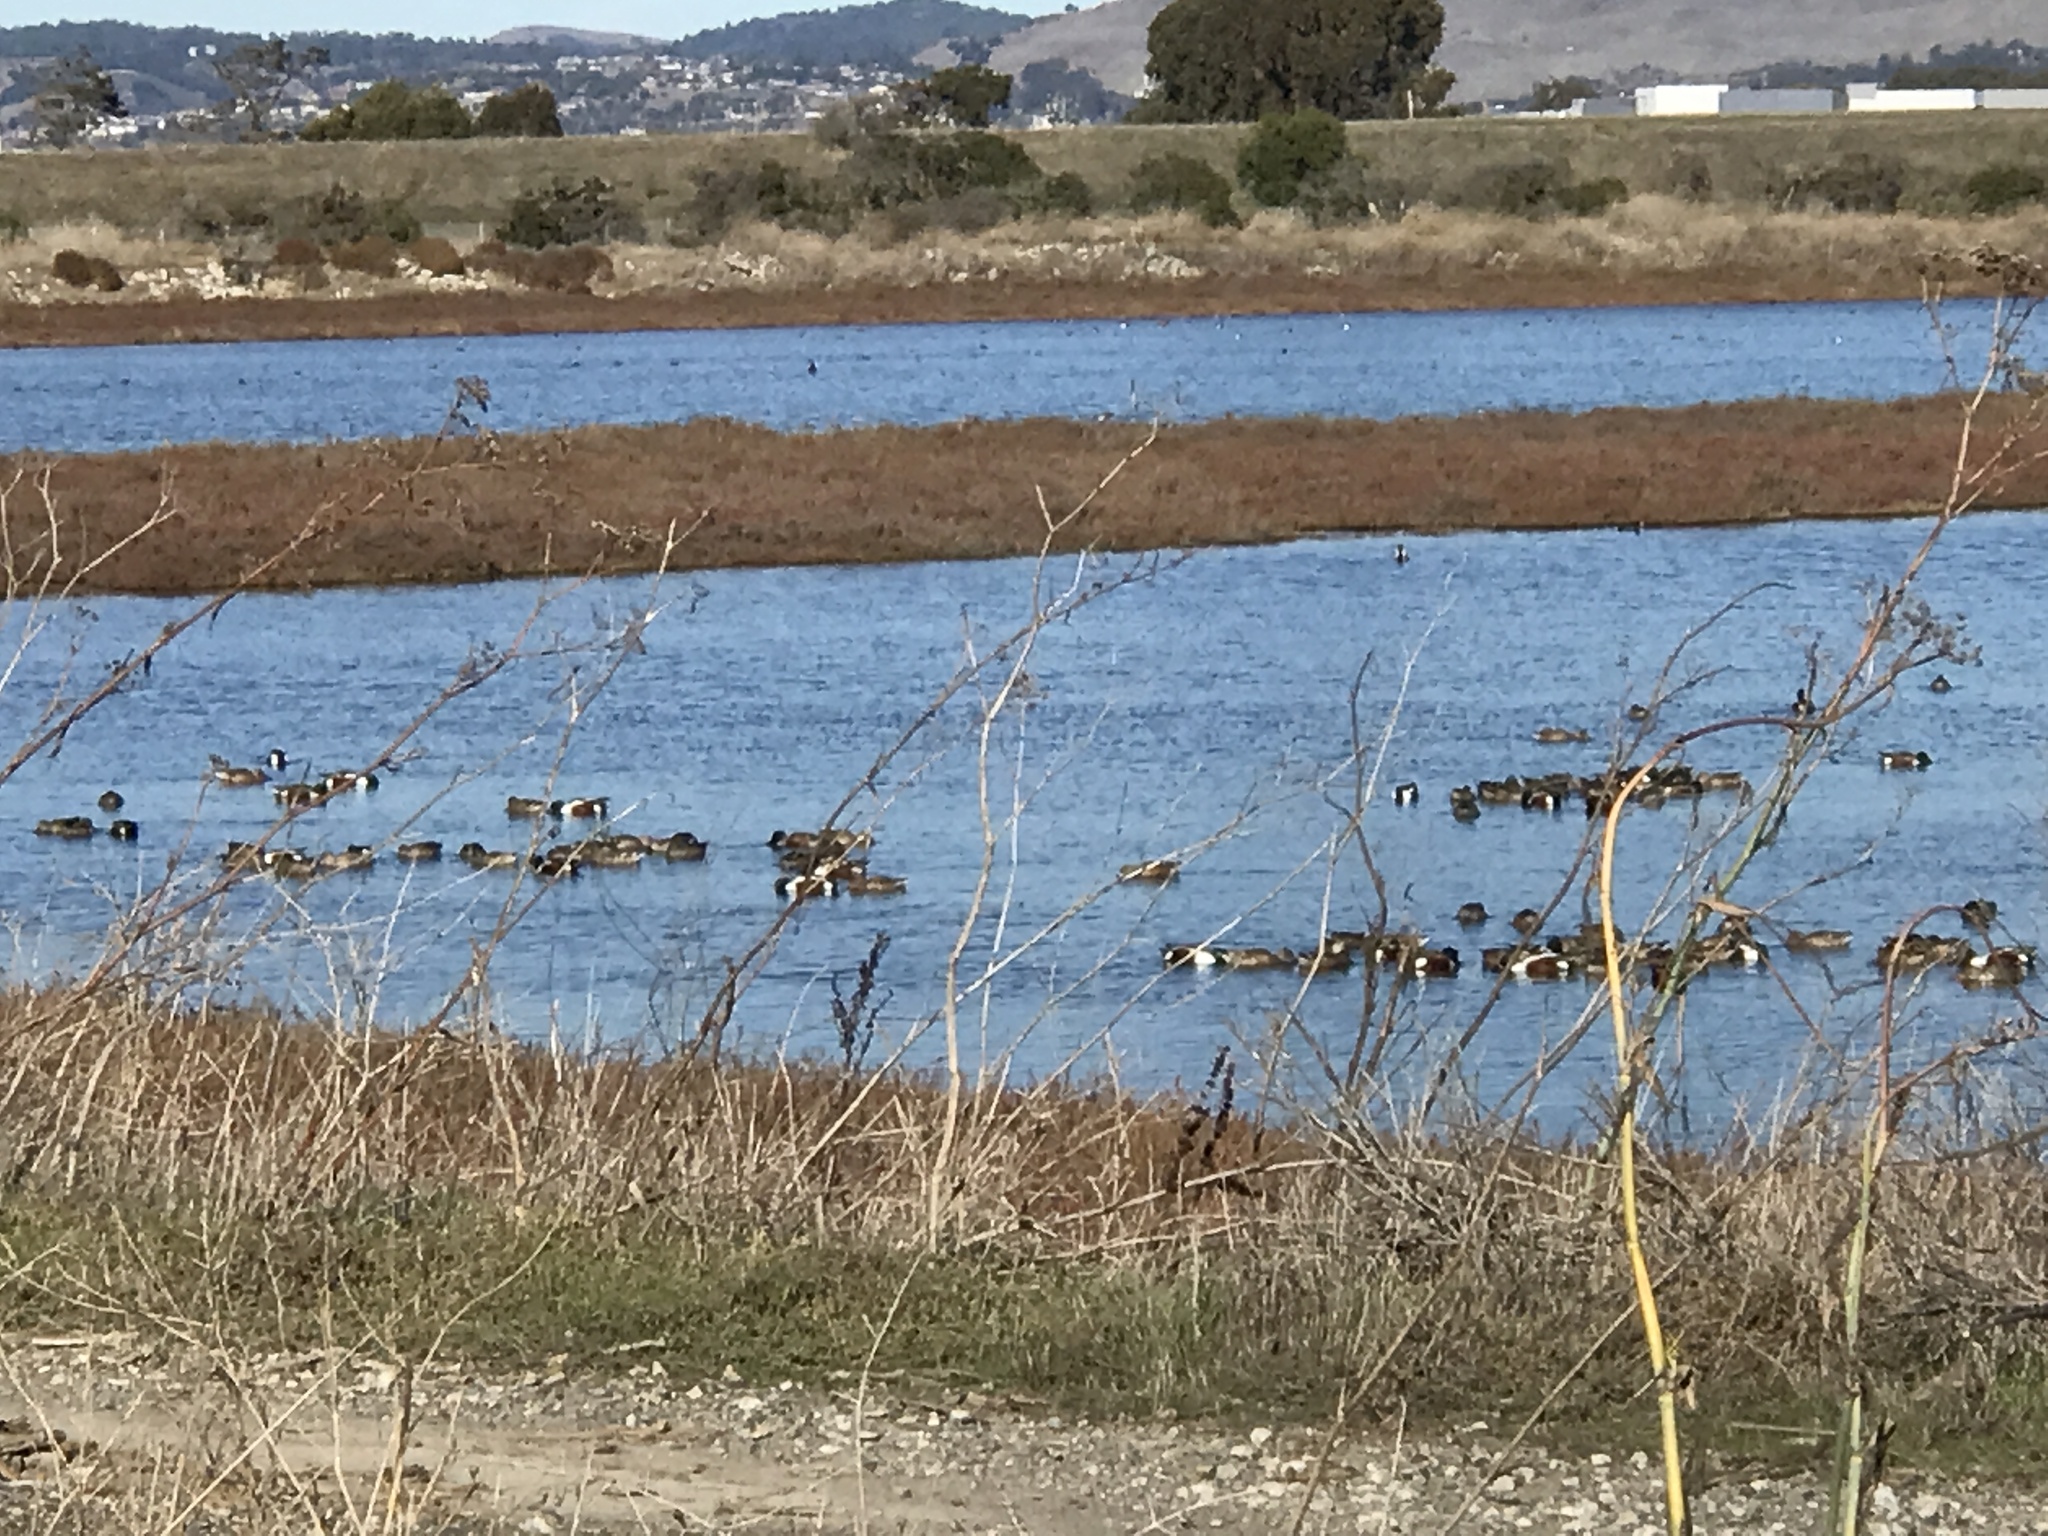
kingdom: Animalia
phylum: Chordata
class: Aves
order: Anseriformes
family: Anatidae
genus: Spatula
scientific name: Spatula clypeata
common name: Northern shoveler
